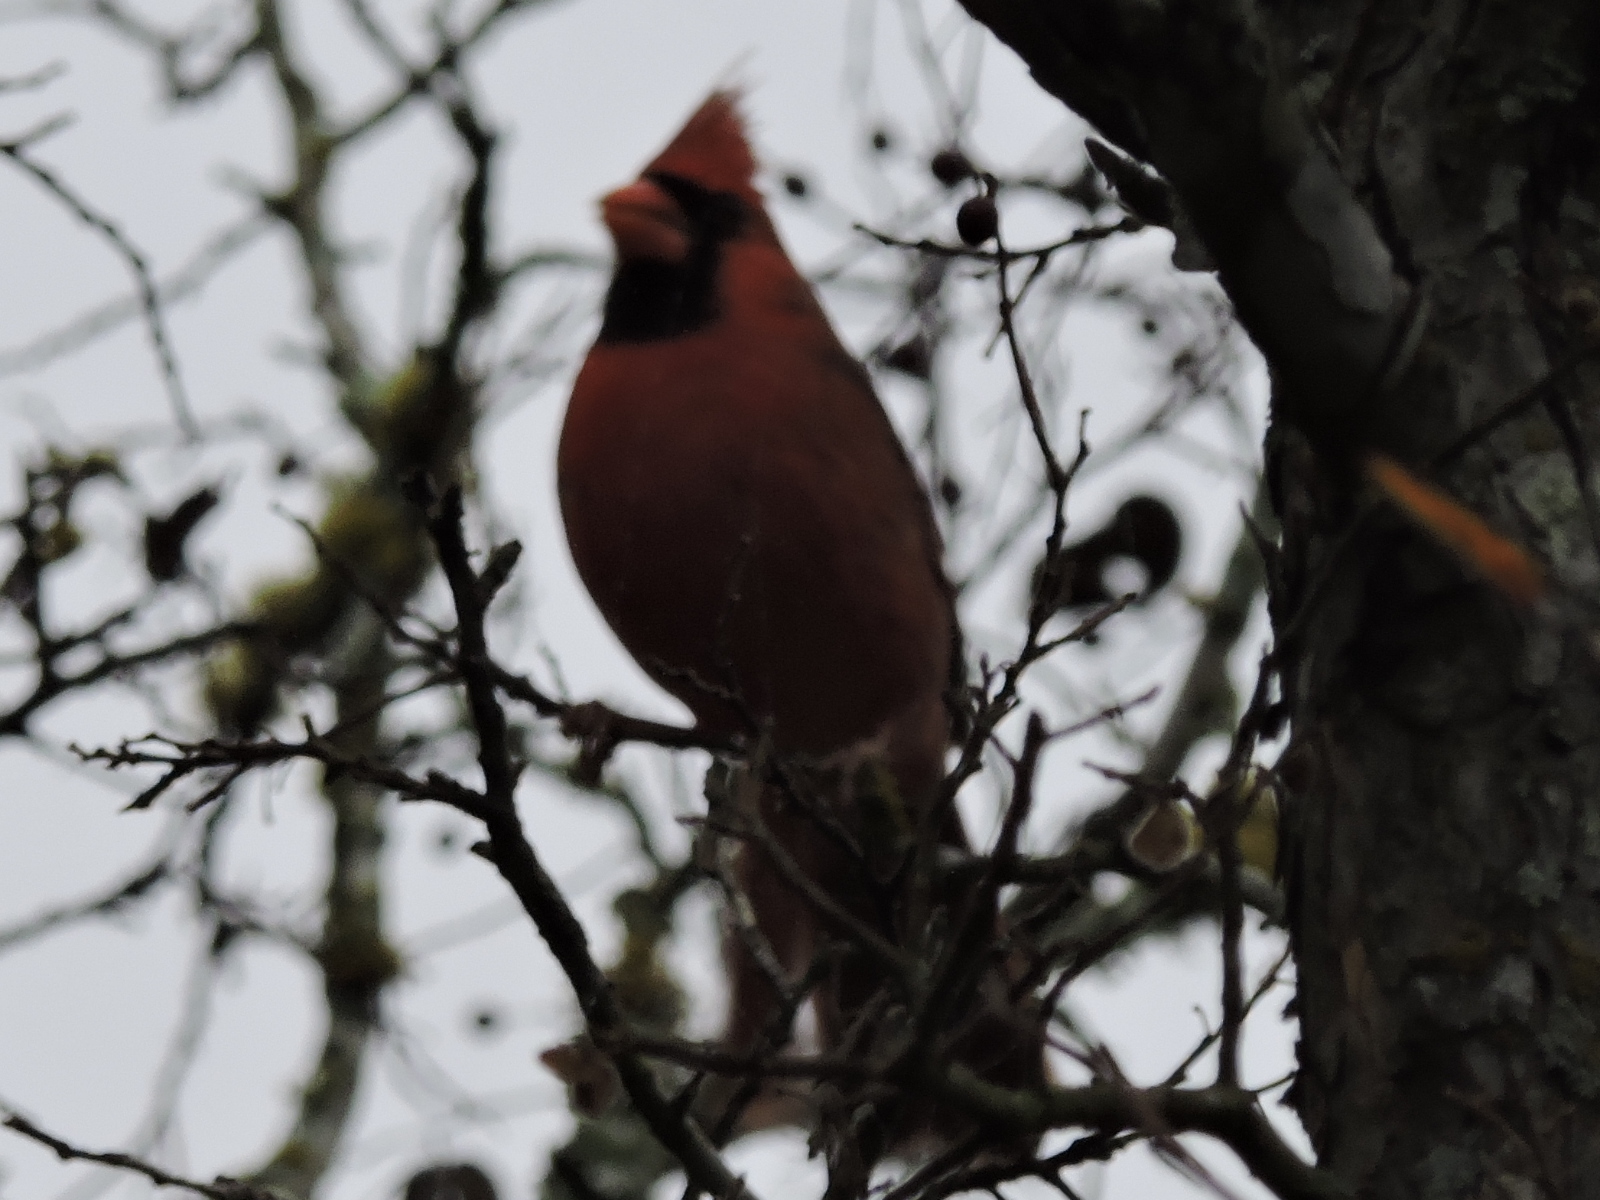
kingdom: Animalia
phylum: Chordata
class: Aves
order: Passeriformes
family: Cardinalidae
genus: Cardinalis
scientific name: Cardinalis cardinalis
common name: Northern cardinal
